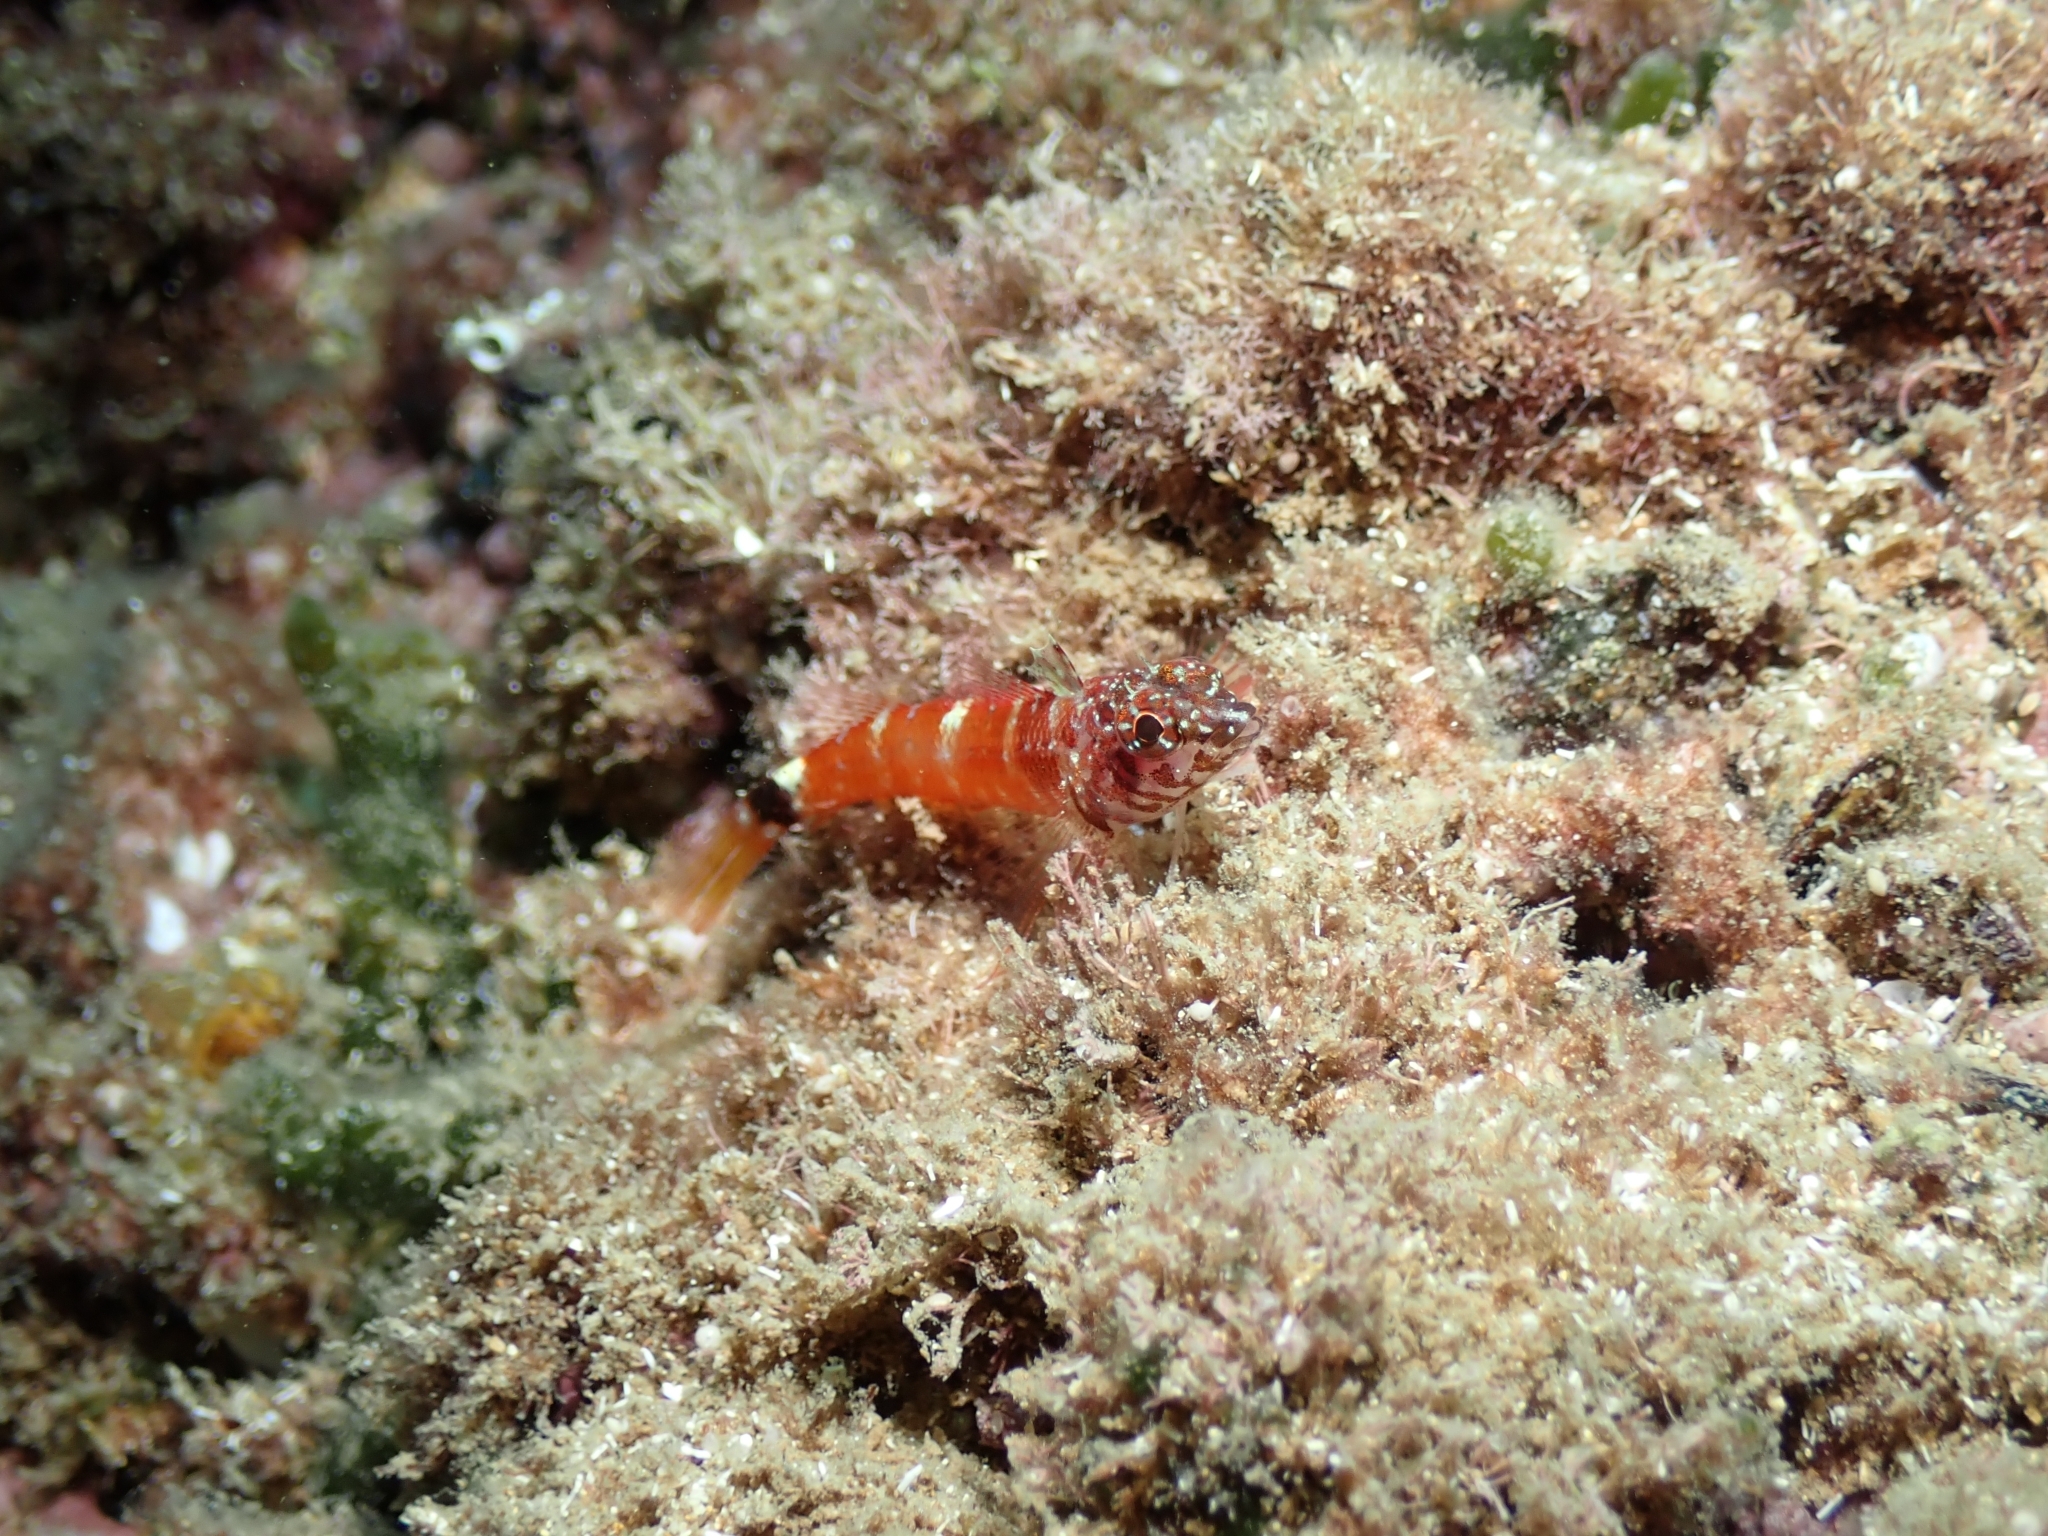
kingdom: Animalia
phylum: Chordata
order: Perciformes
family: Tripterygiidae
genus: Tripterygion
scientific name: Tripterygion melanurum
